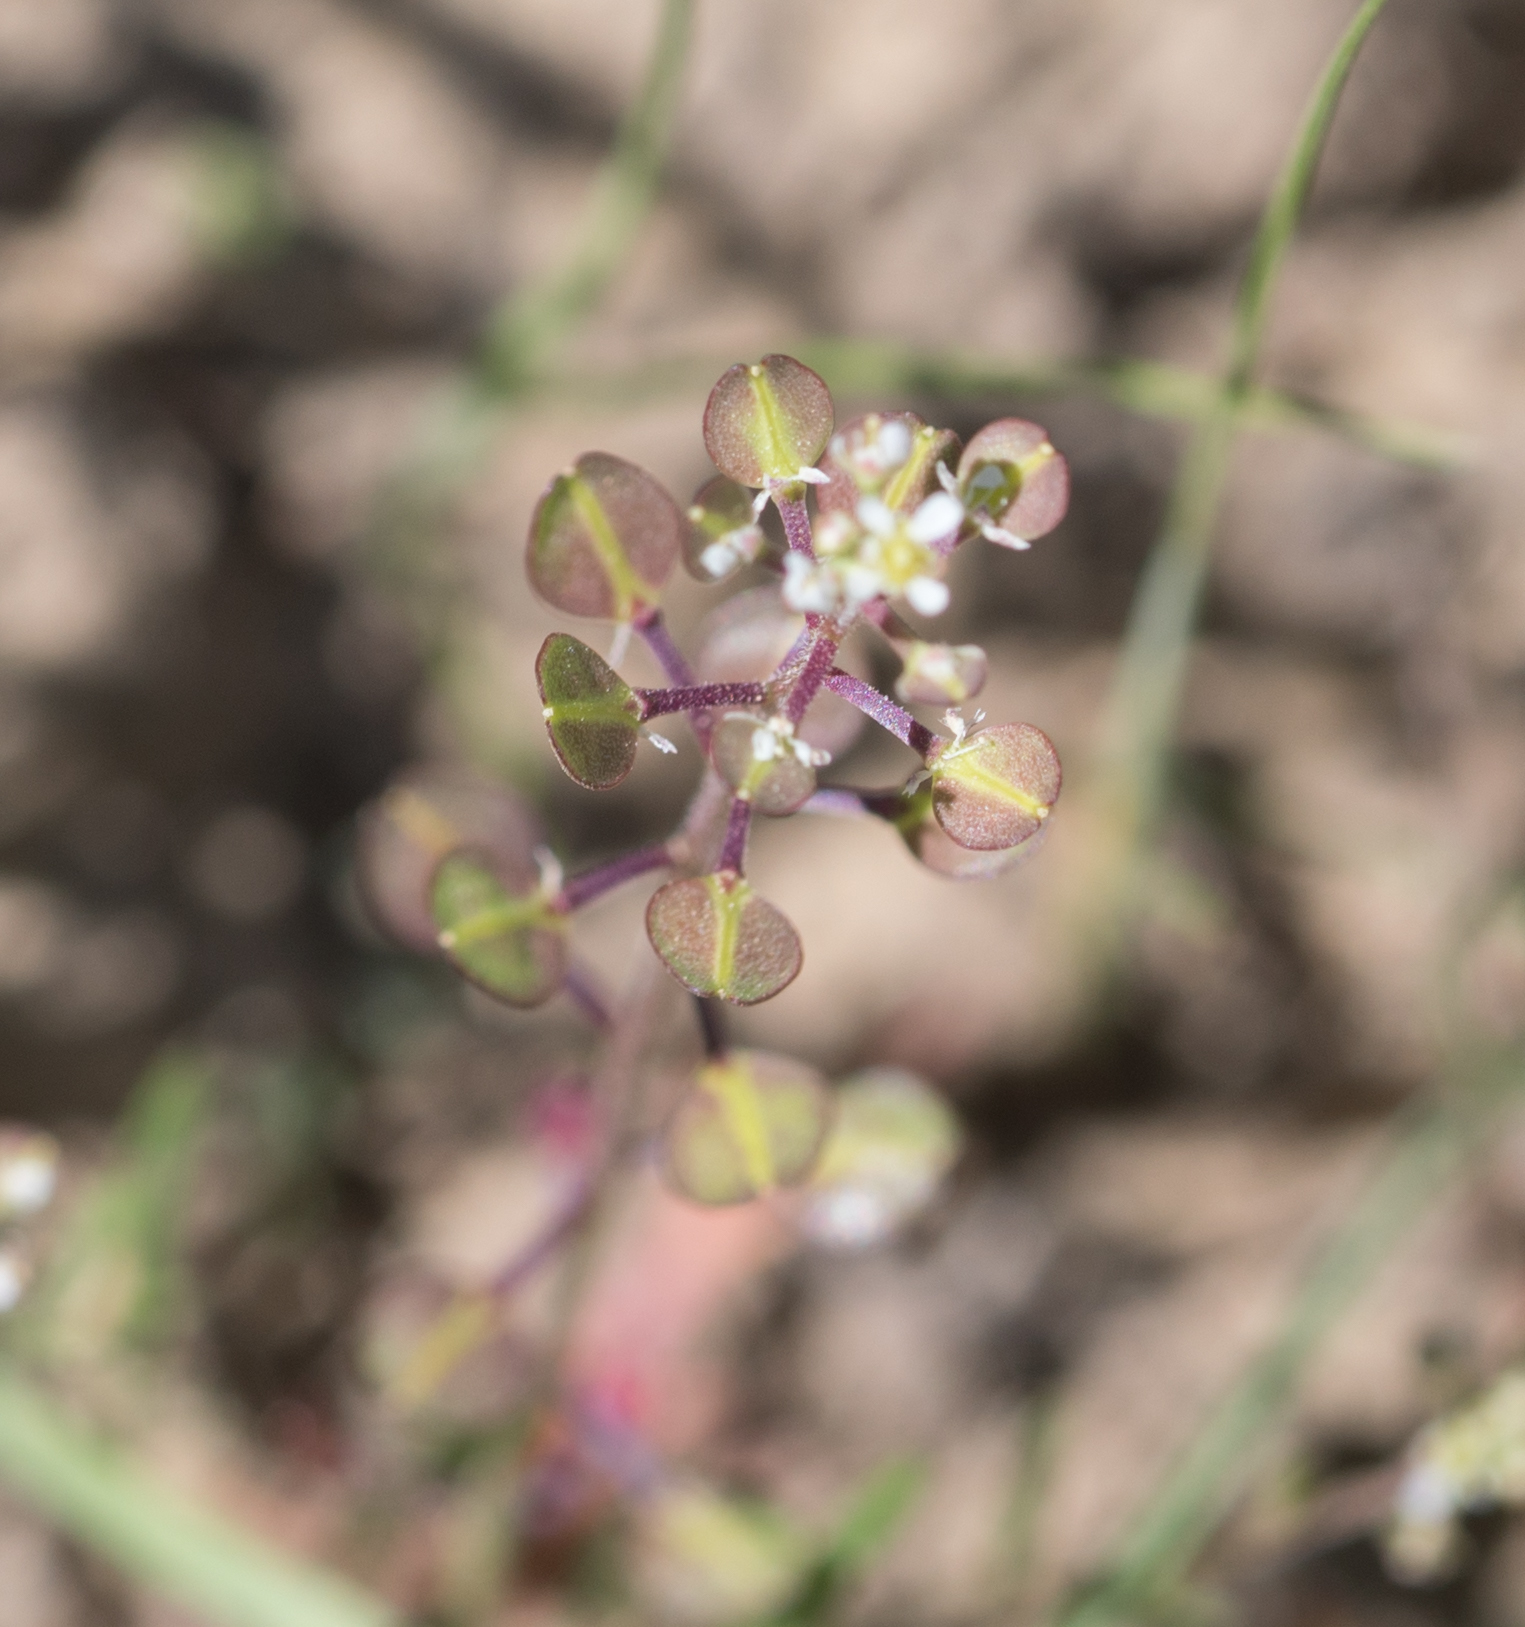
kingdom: Plantae
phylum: Tracheophyta
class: Magnoliopsida
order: Brassicales
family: Brassicaceae
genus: Lepidium
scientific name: Lepidium nitidum
